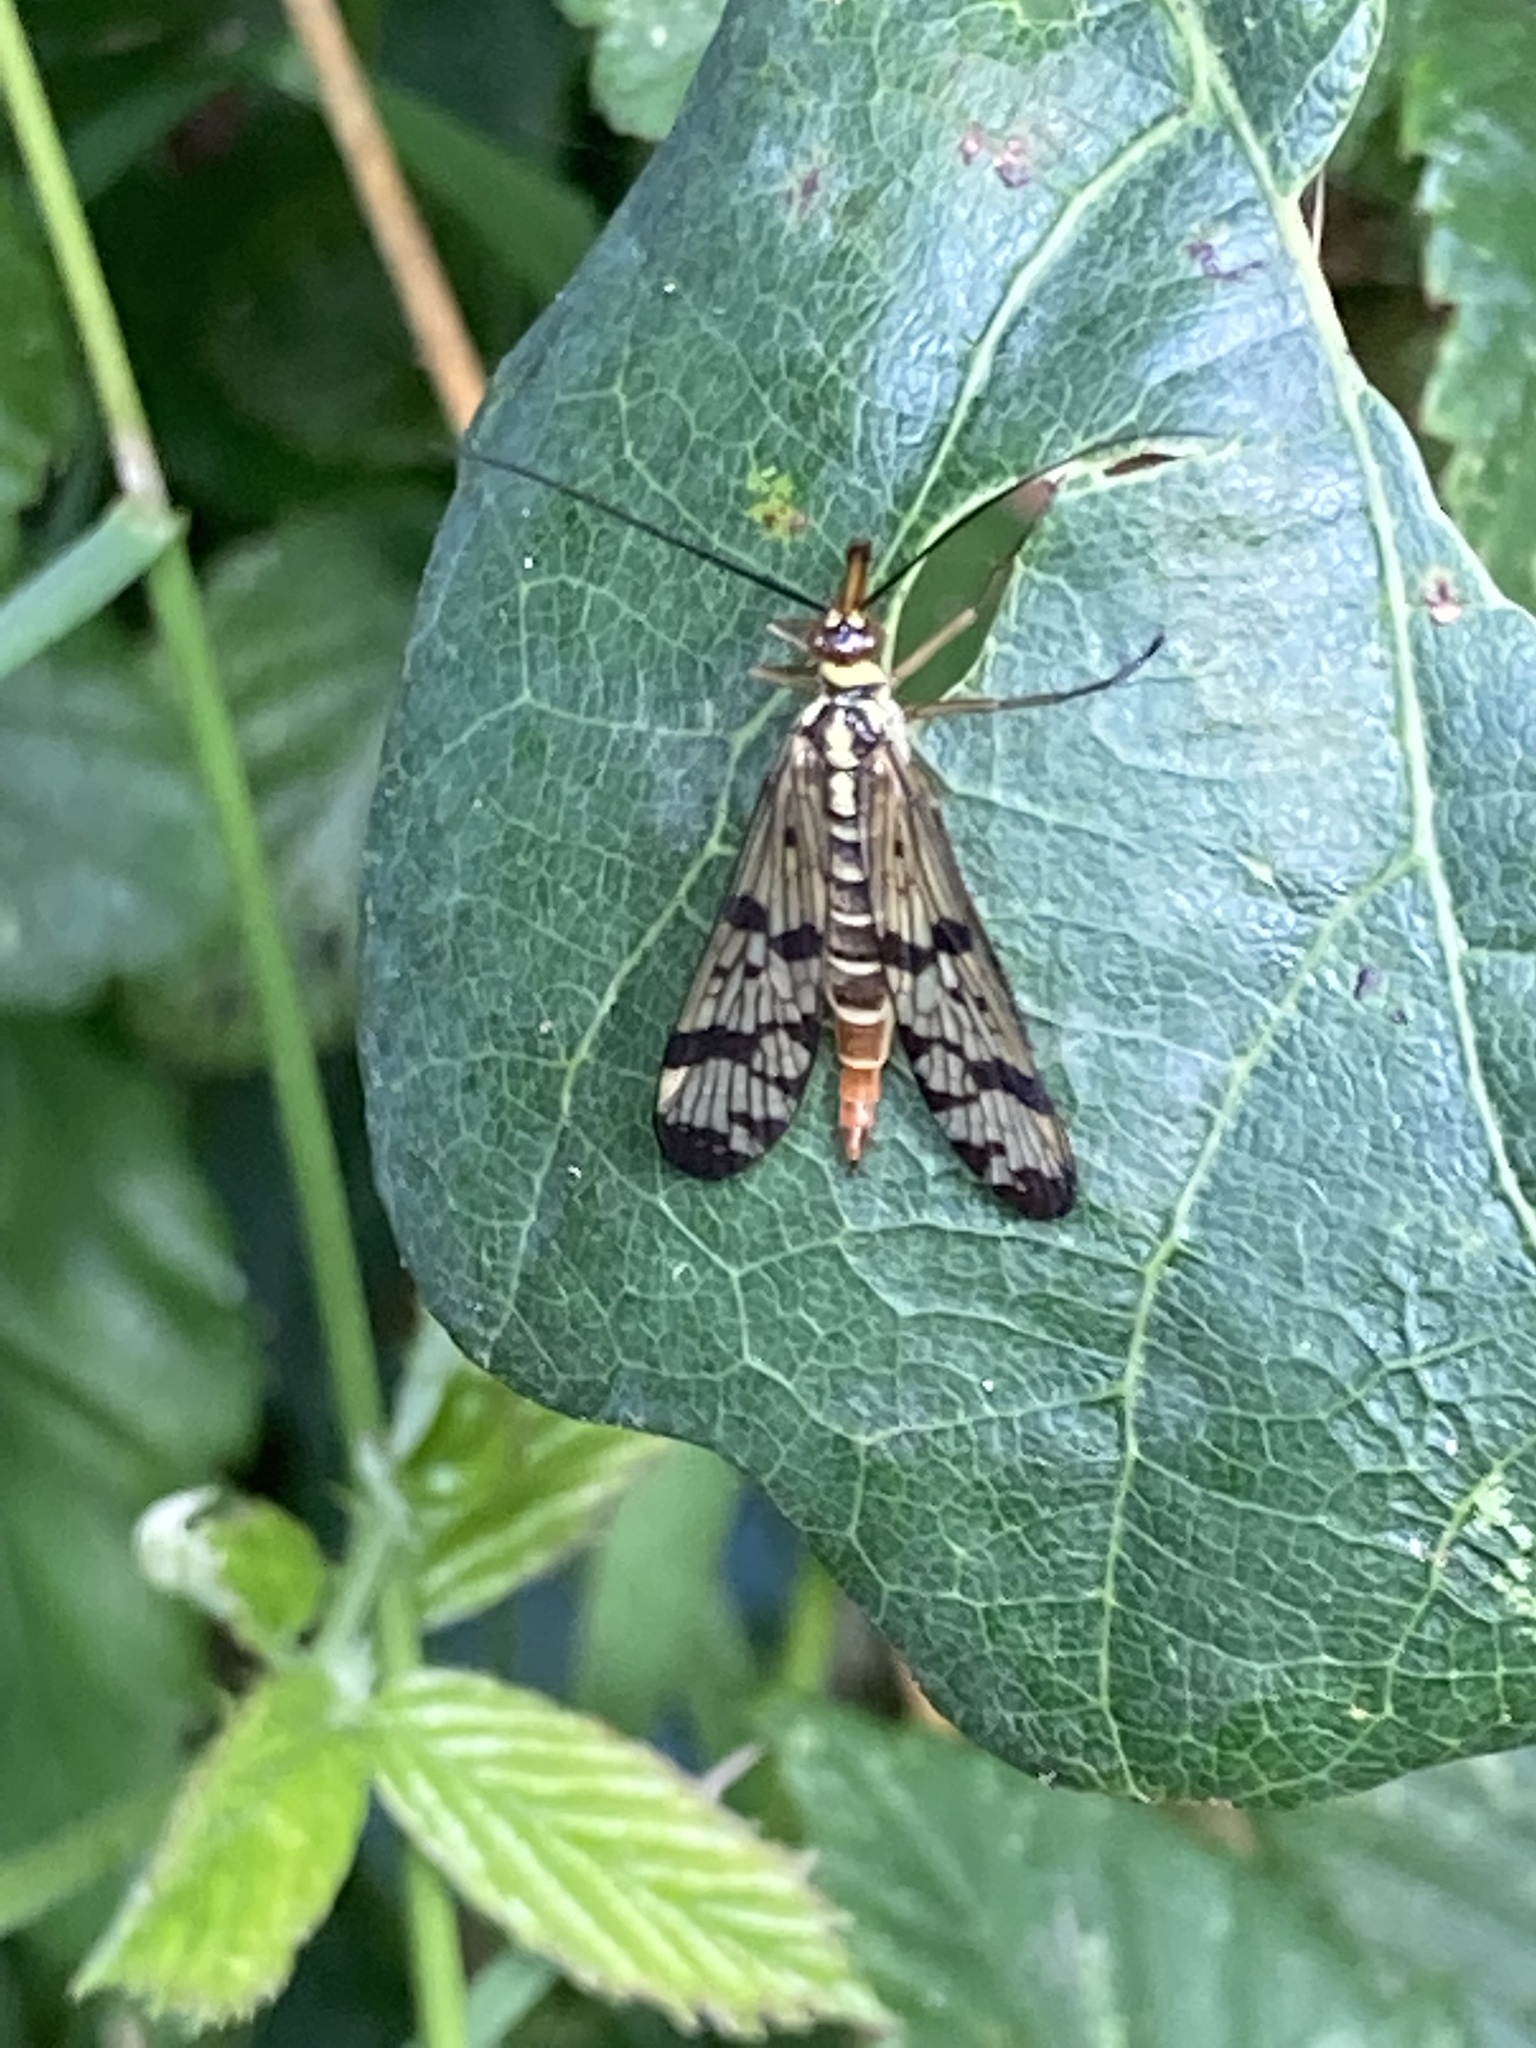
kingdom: Animalia
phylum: Arthropoda
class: Insecta
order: Mecoptera
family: Panorpidae
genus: Panorpa
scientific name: Panorpa communis
